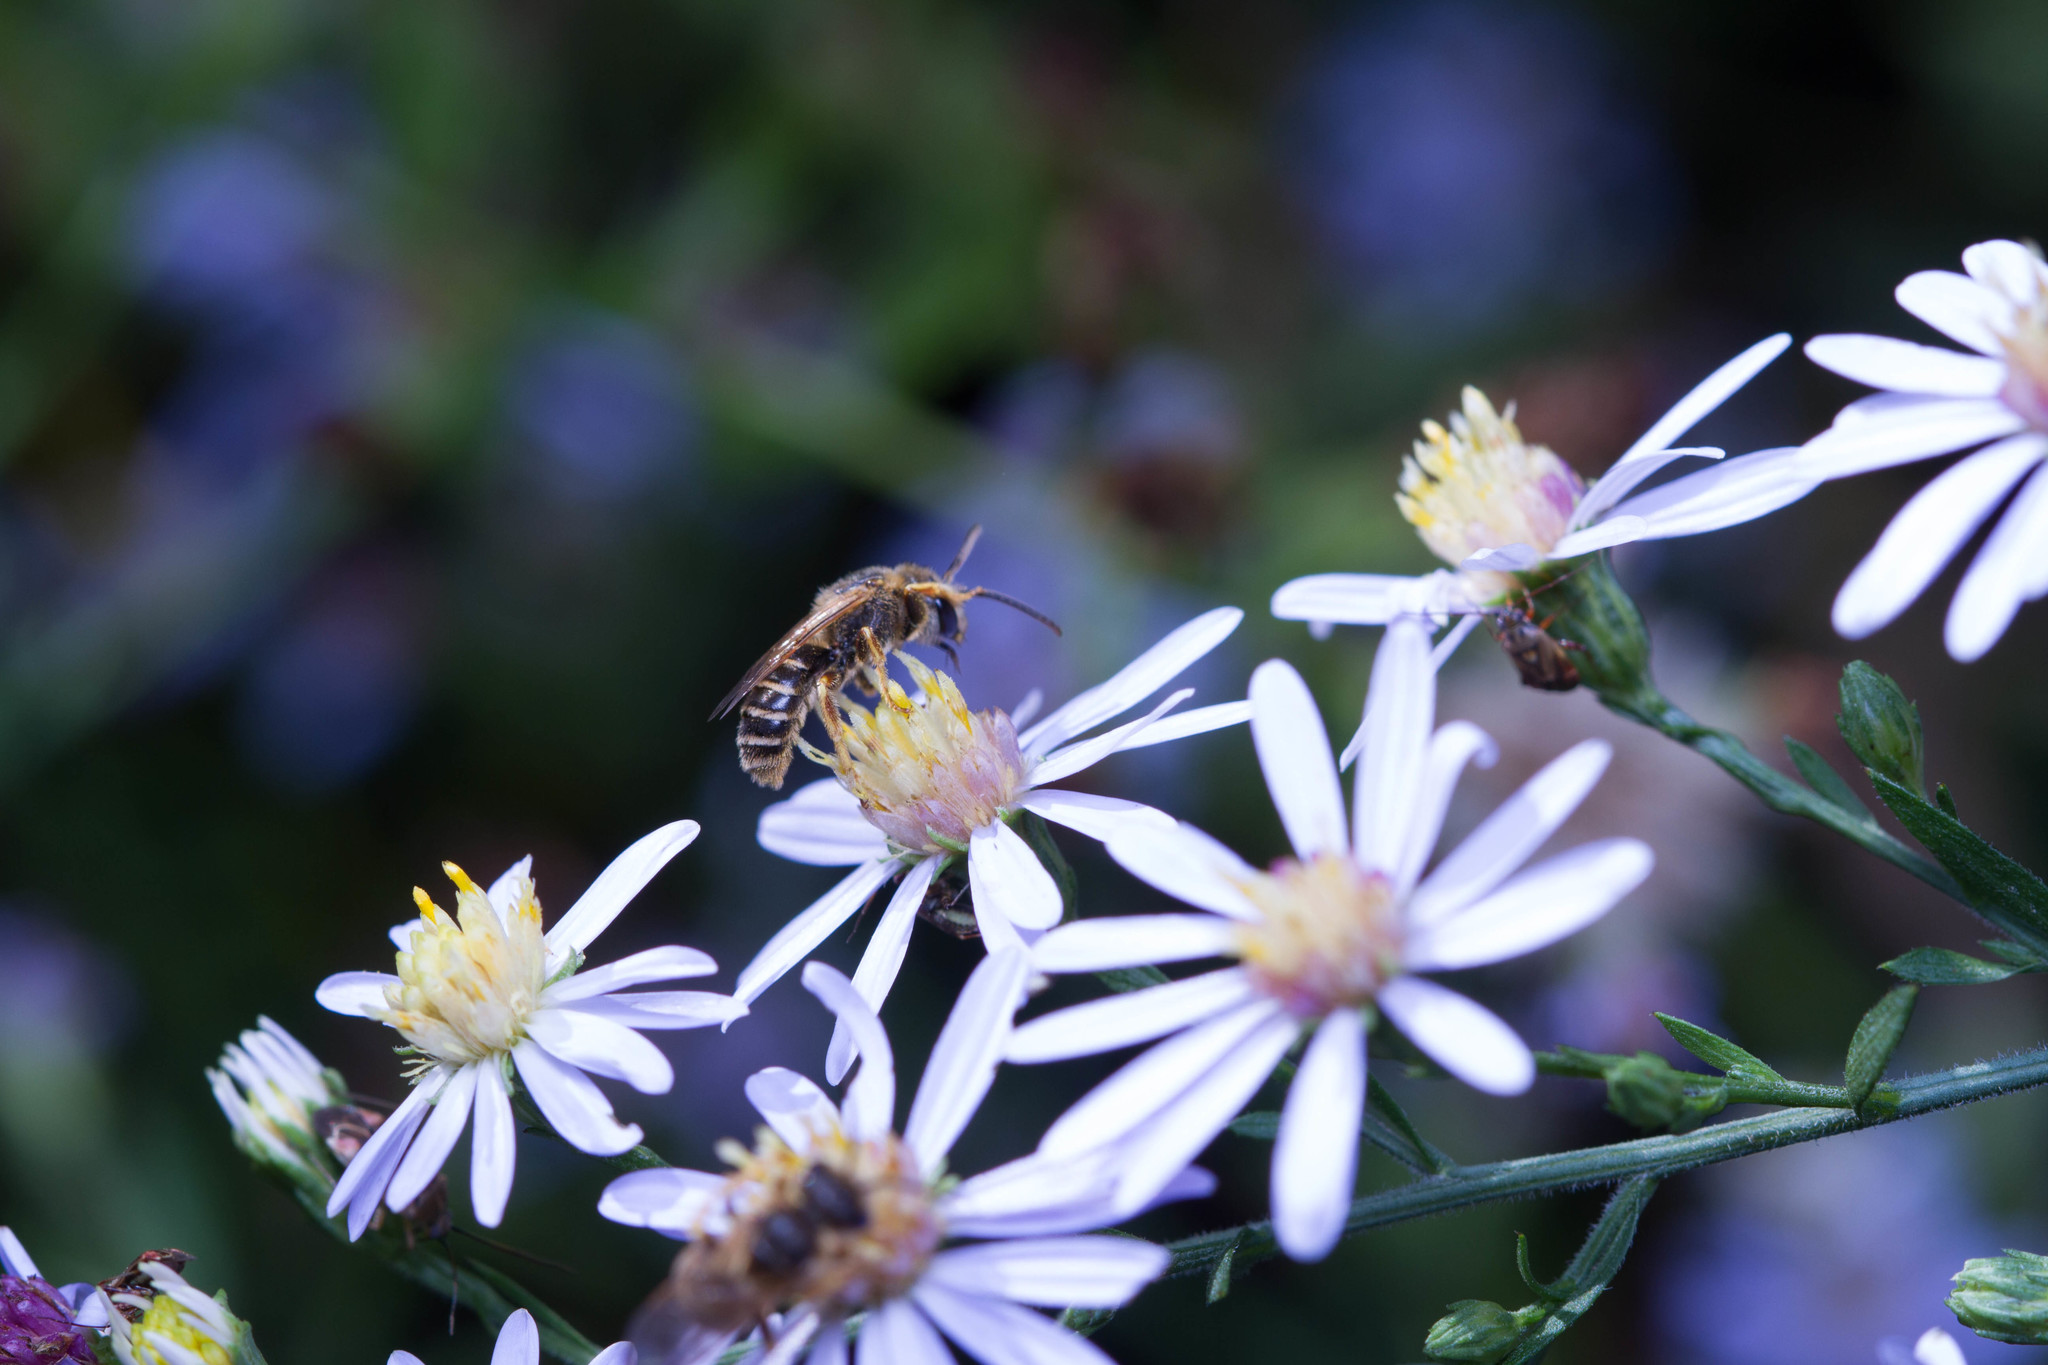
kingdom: Animalia
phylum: Arthropoda
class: Insecta
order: Hymenoptera
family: Halictidae
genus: Halictus
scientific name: Halictus ligatus
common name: Ligated furrow bee
